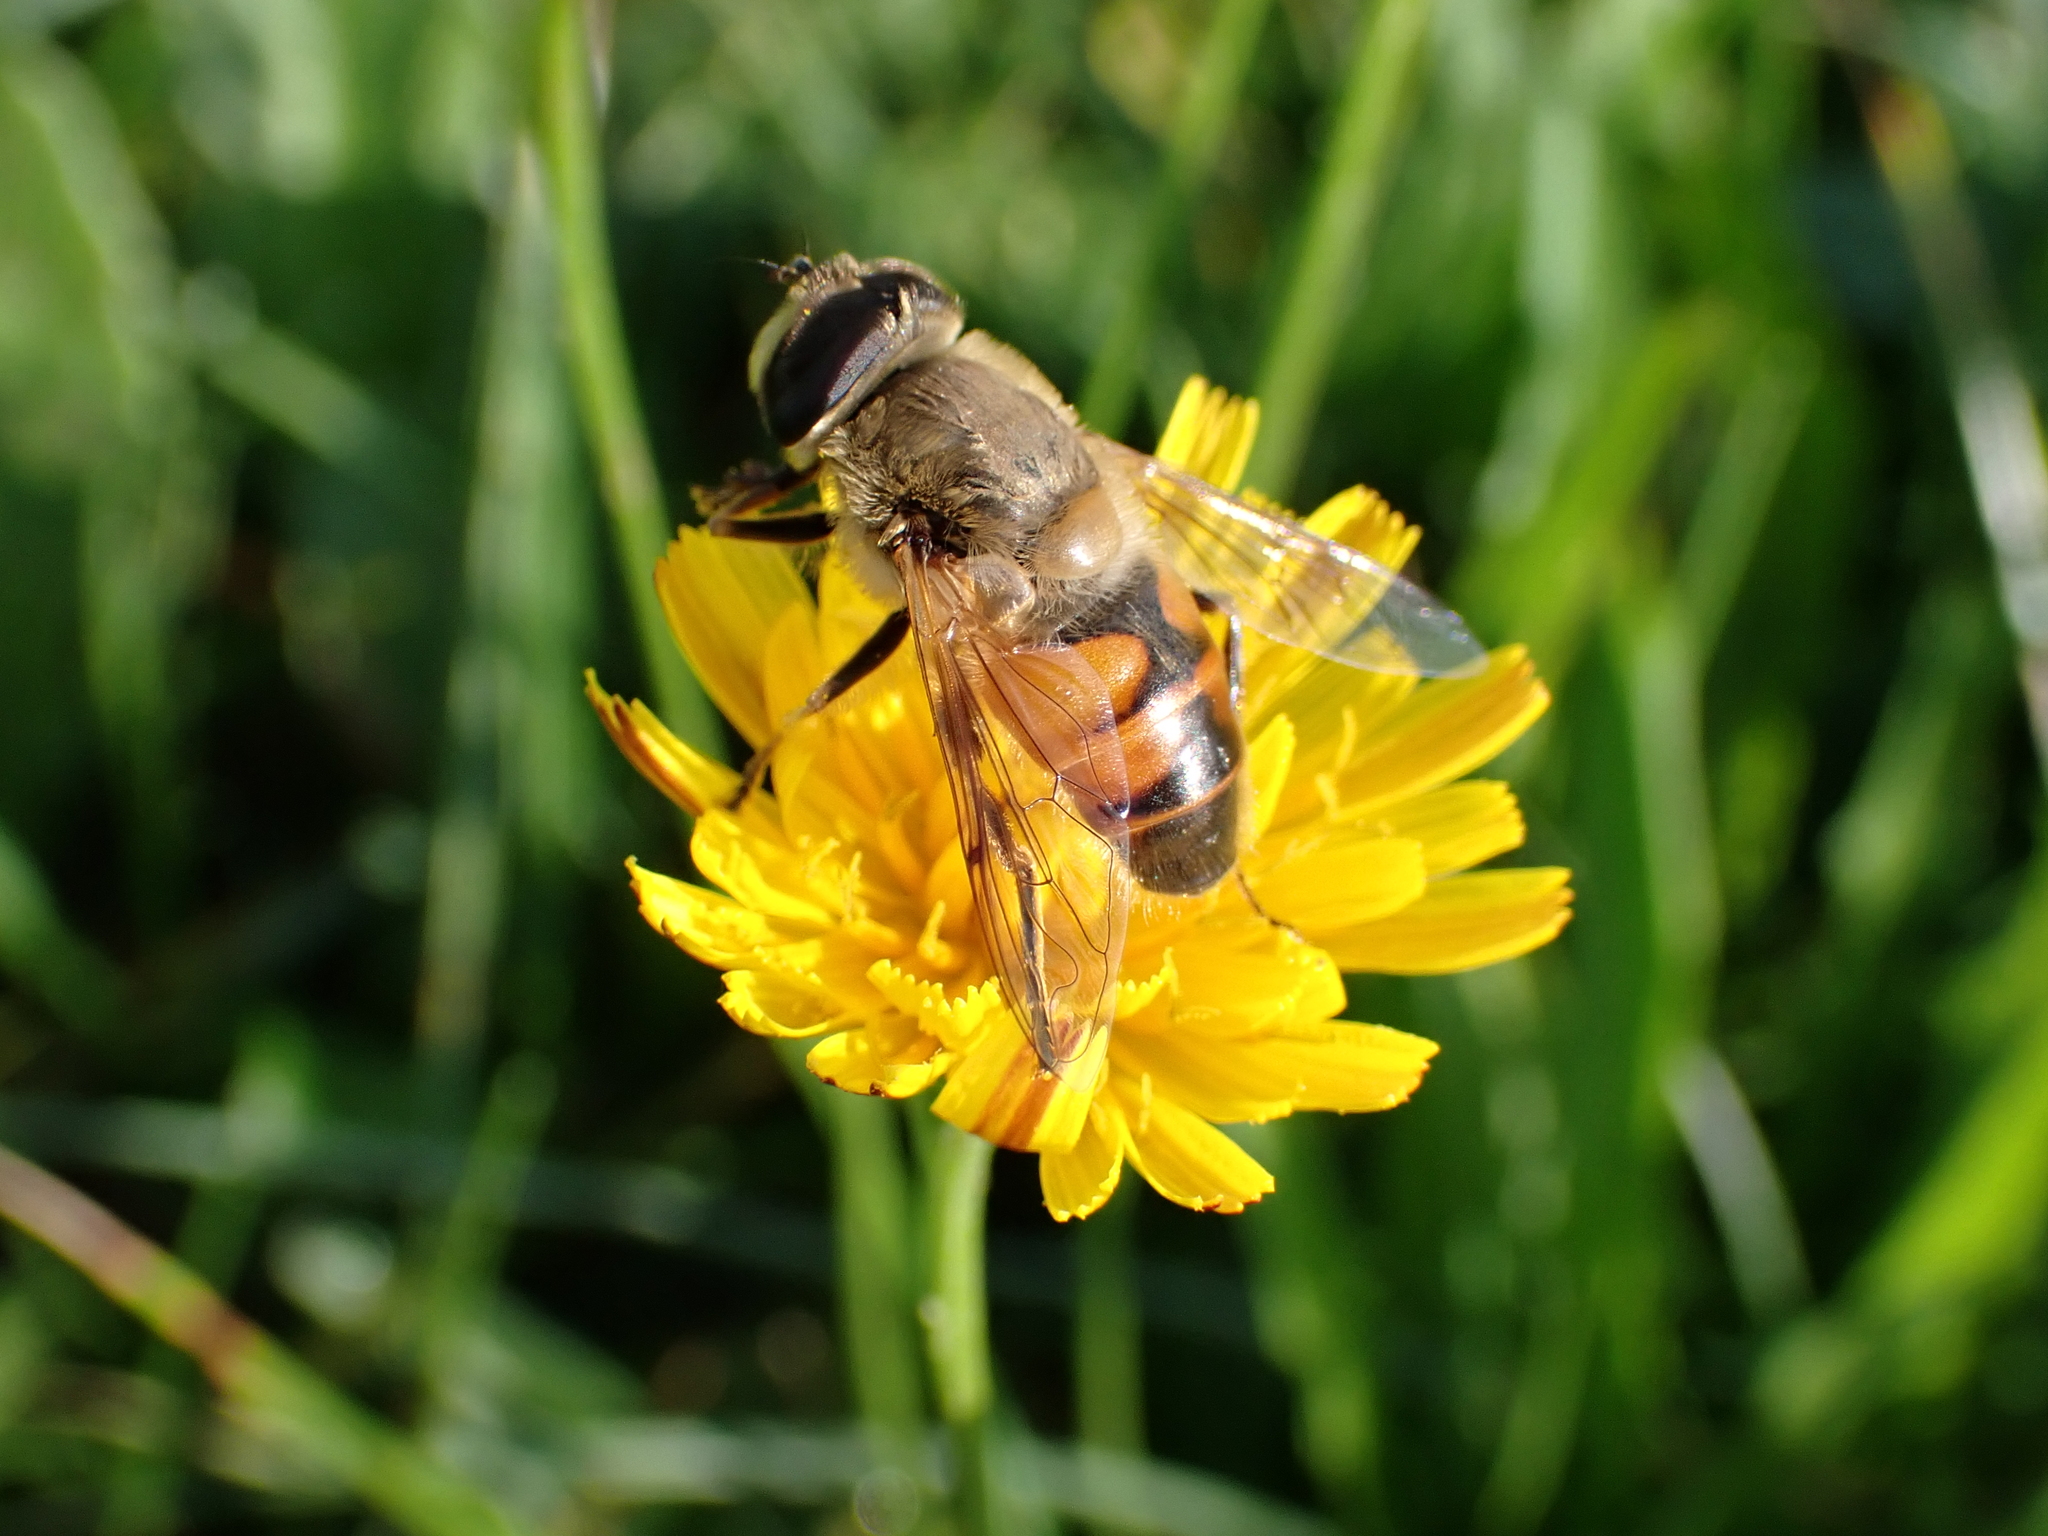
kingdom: Animalia
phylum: Arthropoda
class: Insecta
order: Diptera
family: Syrphidae
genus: Eristalis
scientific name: Eristalis tenax
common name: Drone fly
